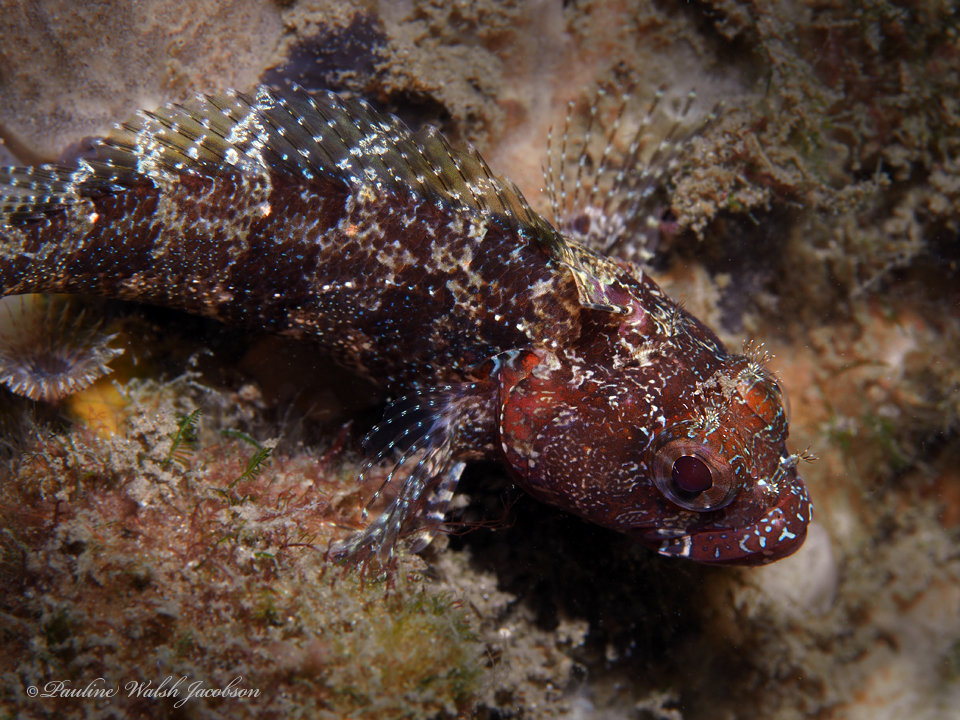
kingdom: Animalia
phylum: Chordata
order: Perciformes
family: Labrisomidae
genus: Gobioclinus
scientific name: Gobioclinus kalisherae
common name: Downy blenny
